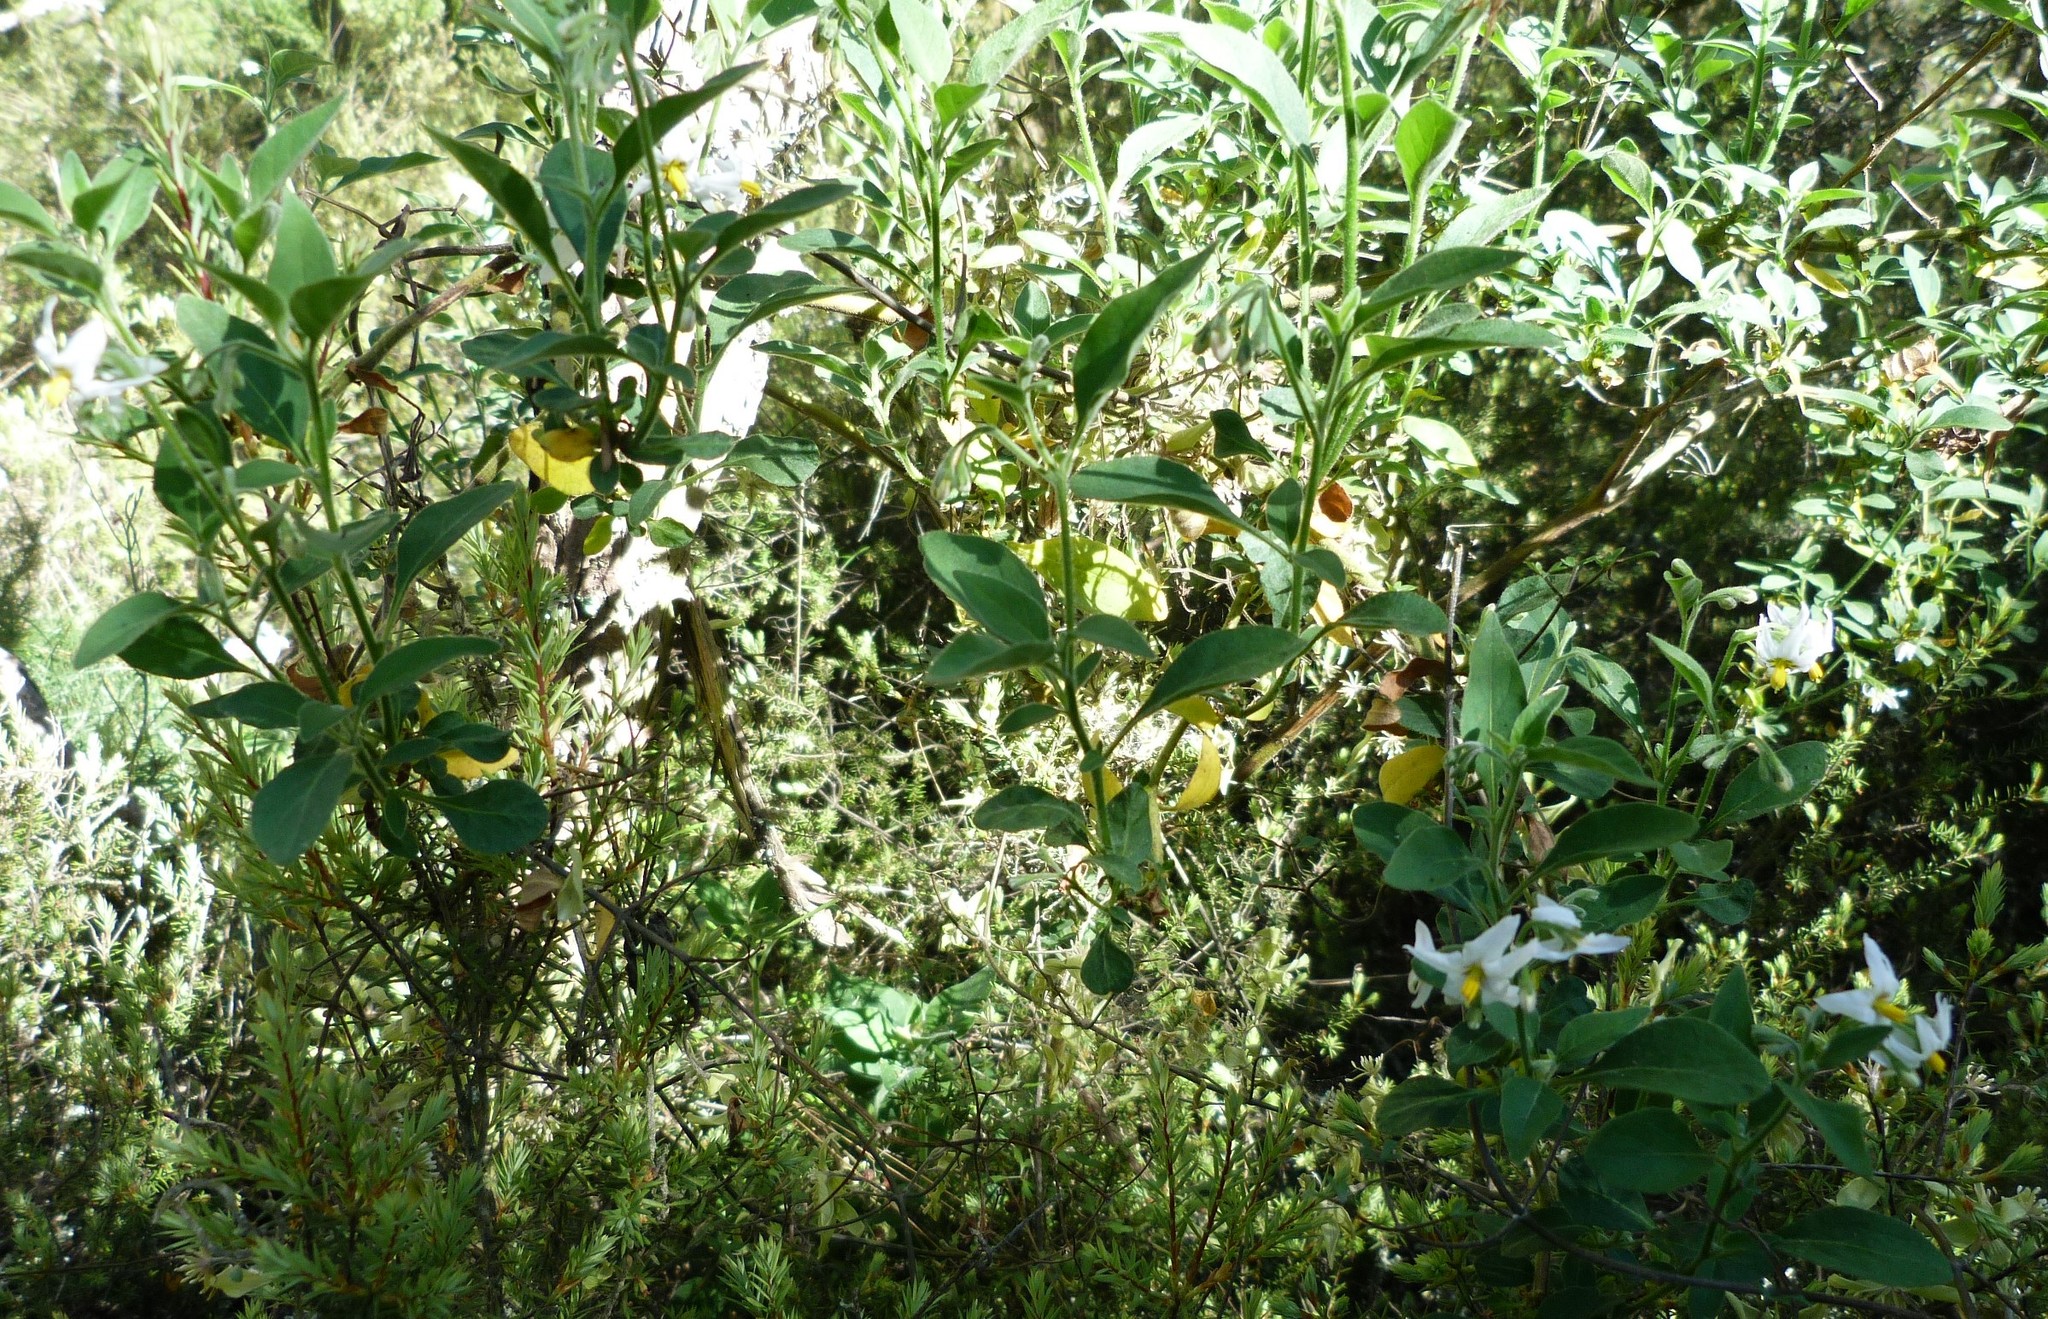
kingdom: Plantae
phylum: Tracheophyta
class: Magnoliopsida
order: Solanales
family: Solanaceae
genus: Solanum
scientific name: Solanum chenopodioides
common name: Tall nightshade
